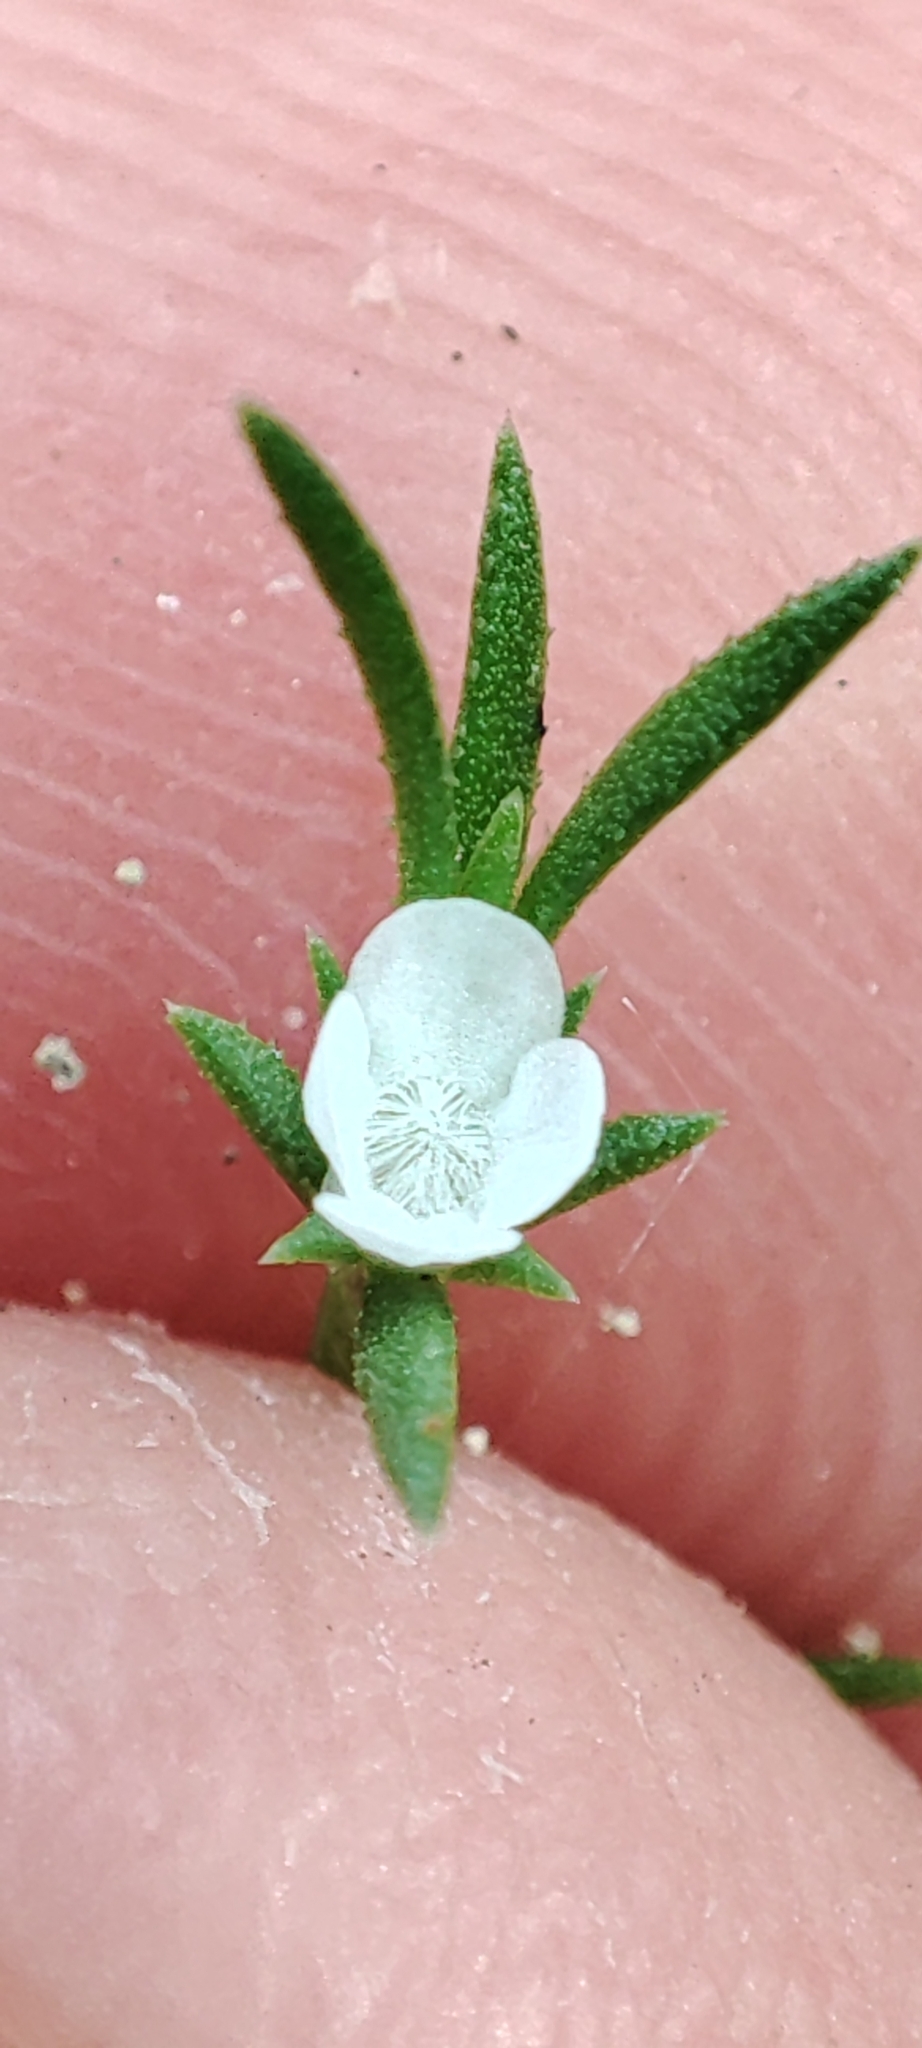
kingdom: Plantae
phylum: Tracheophyta
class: Magnoliopsida
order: Lamiales
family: Tetrachondraceae
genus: Polypremum
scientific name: Polypremum procumbens
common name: Juniper-leaf
